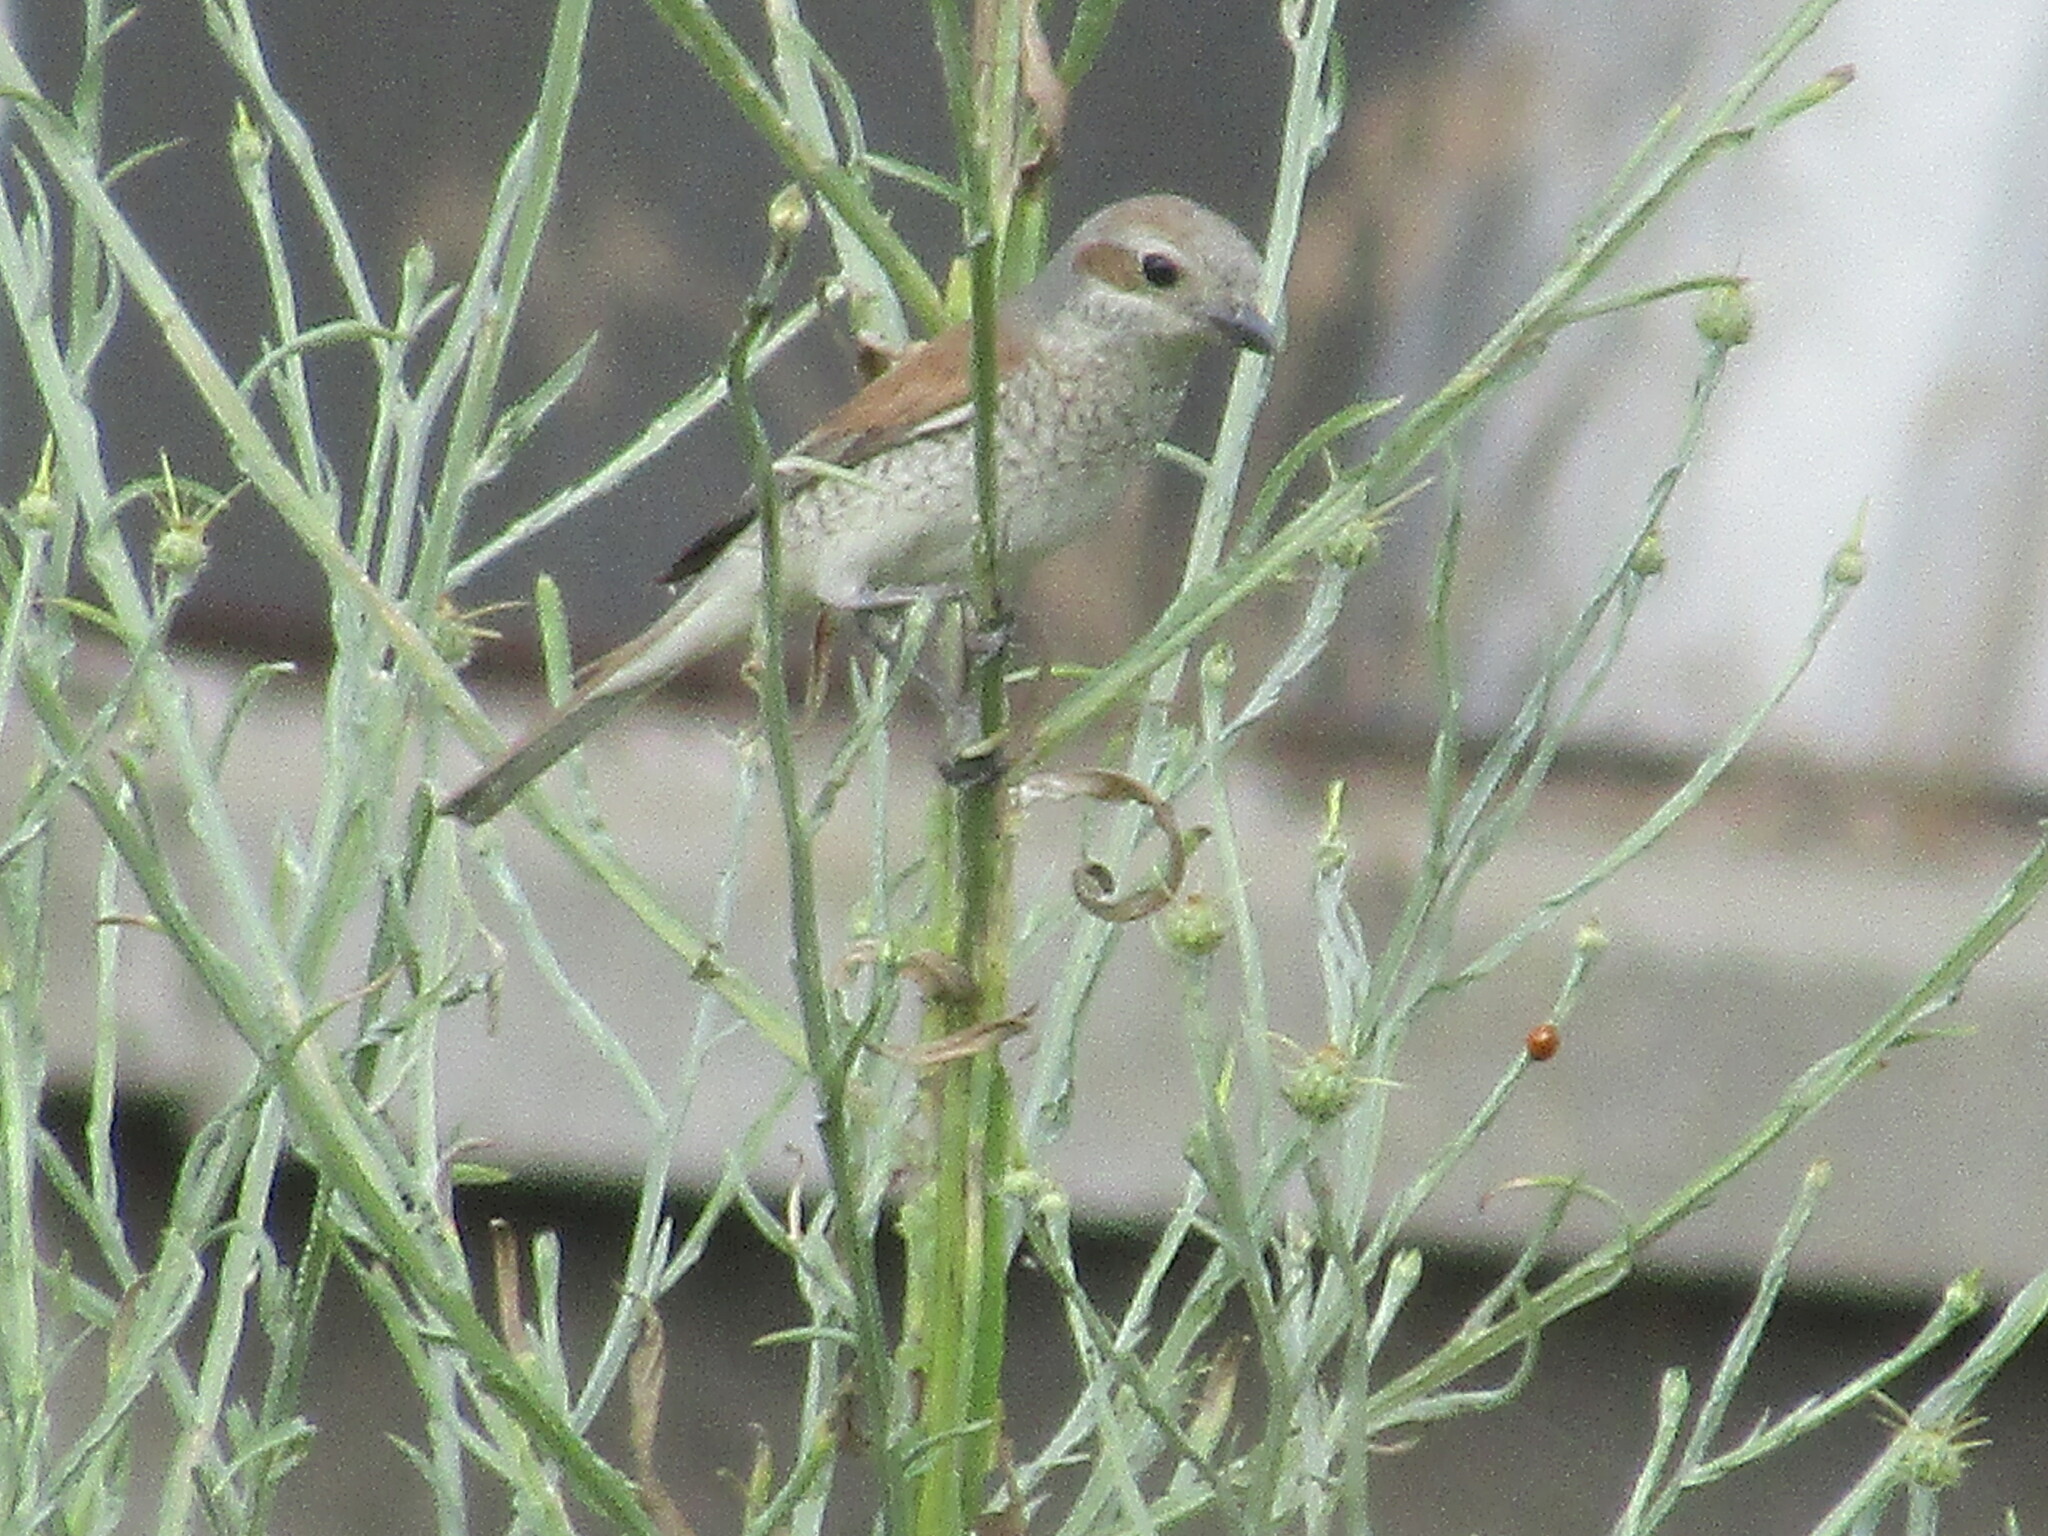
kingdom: Animalia
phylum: Chordata
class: Aves
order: Passeriformes
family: Laniidae
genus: Lanius
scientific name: Lanius collurio
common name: Red-backed shrike
